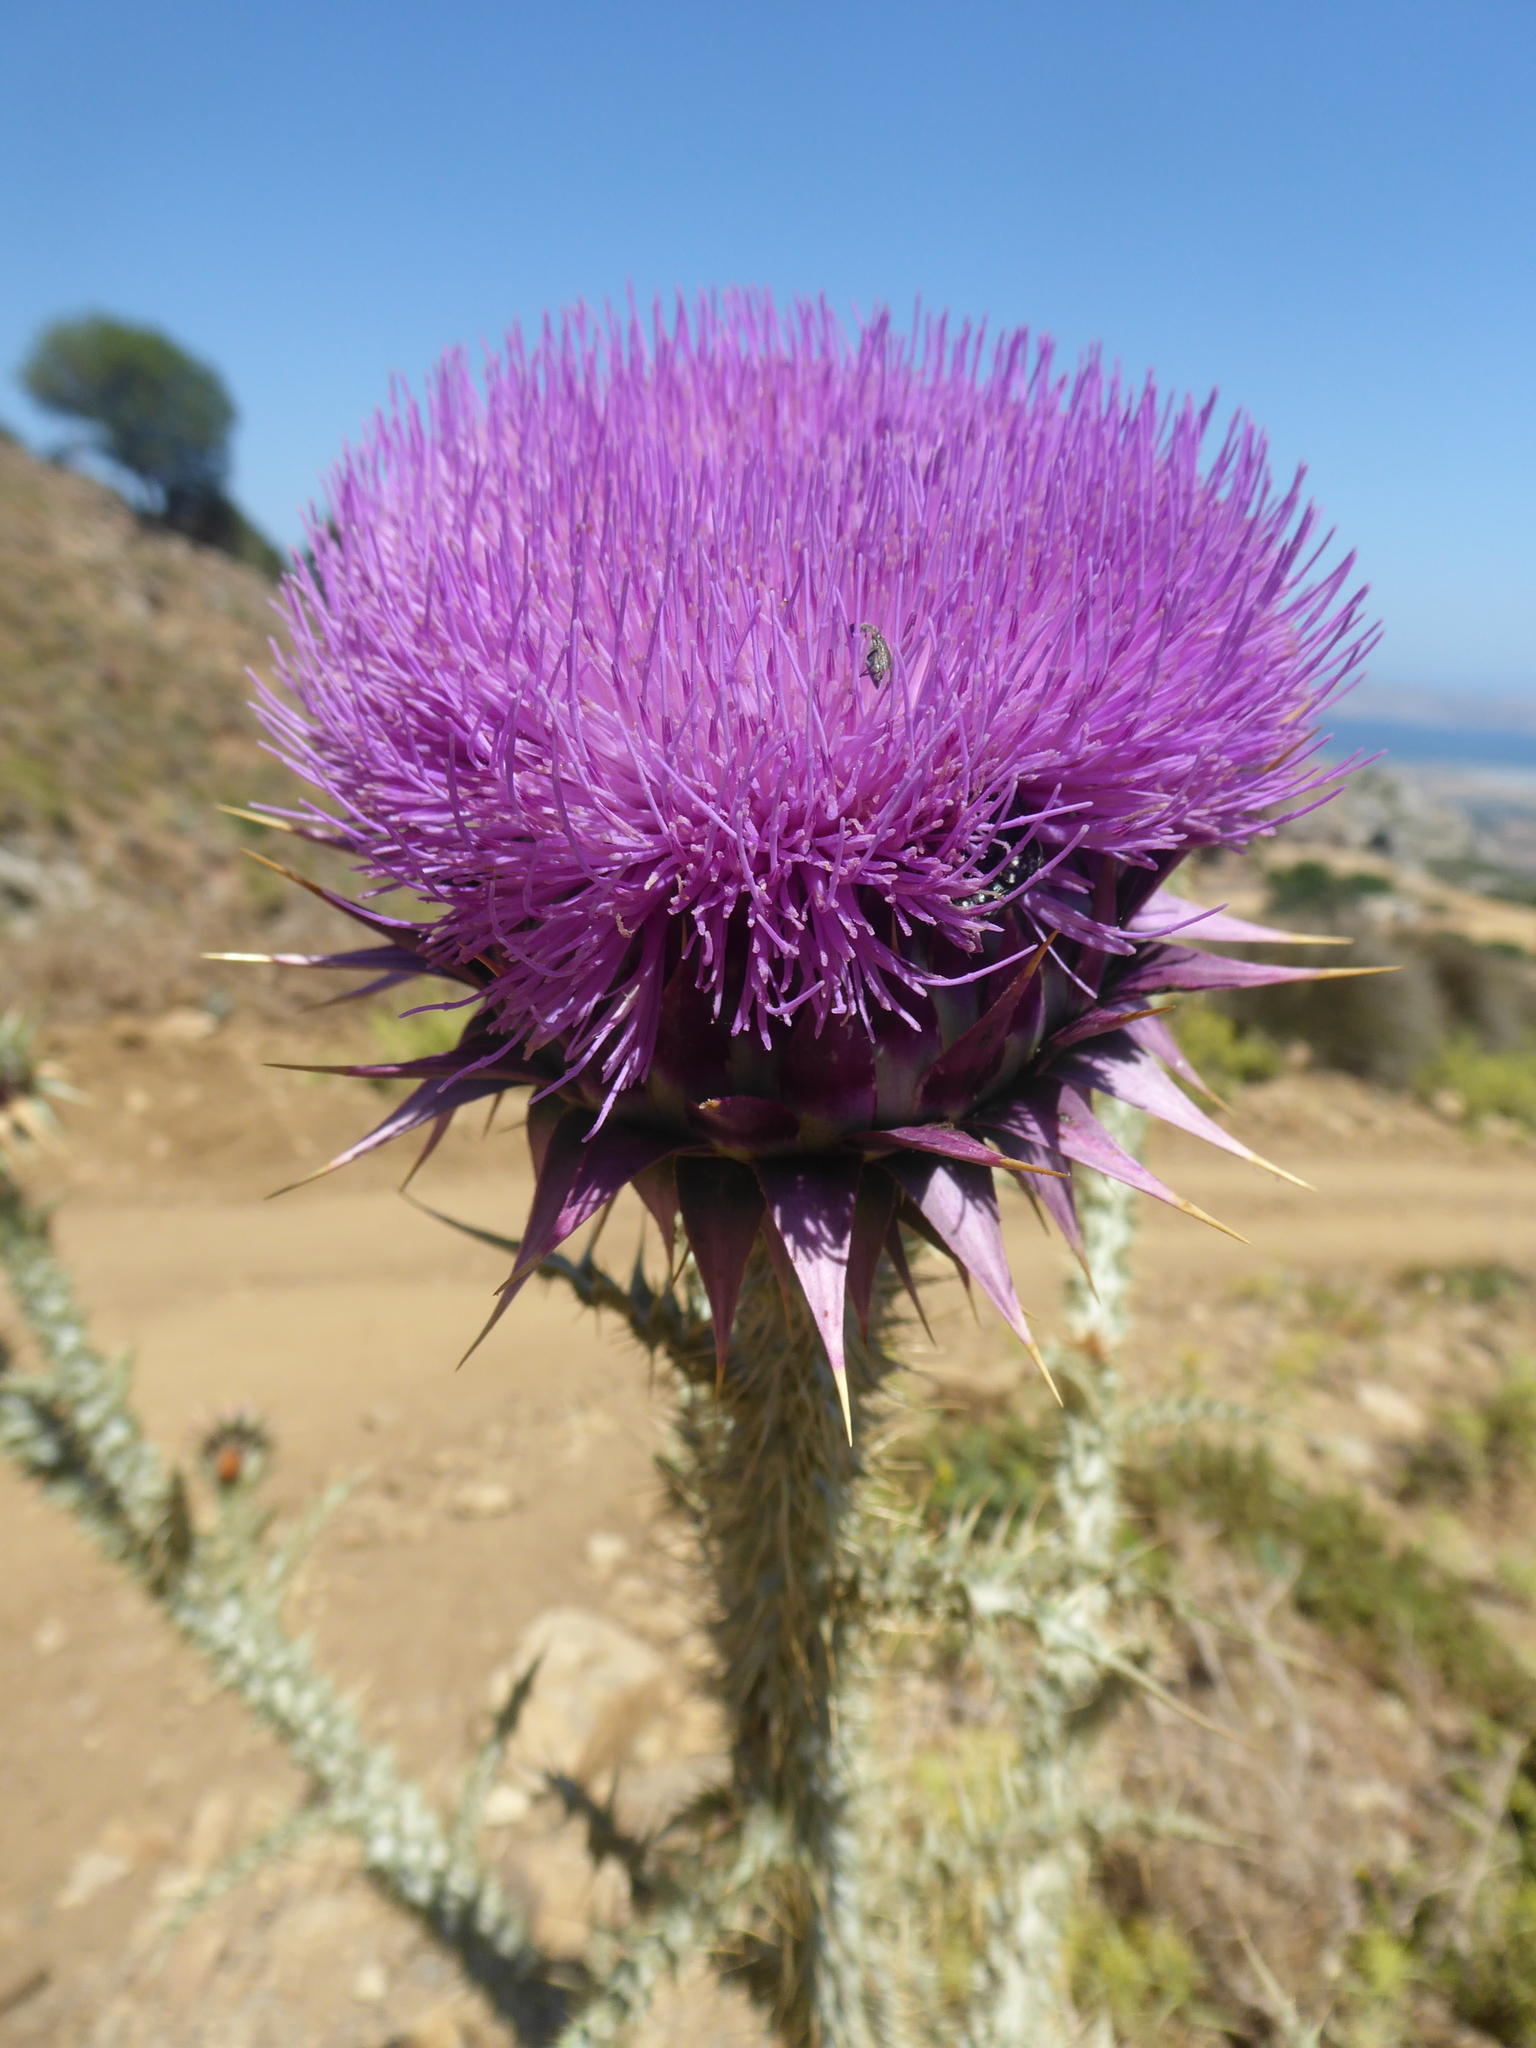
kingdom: Plantae
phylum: Tracheophyta
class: Magnoliopsida
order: Asterales
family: Asteraceae
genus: Onopordum
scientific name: Onopordum illyricum
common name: Illyrian thistle
